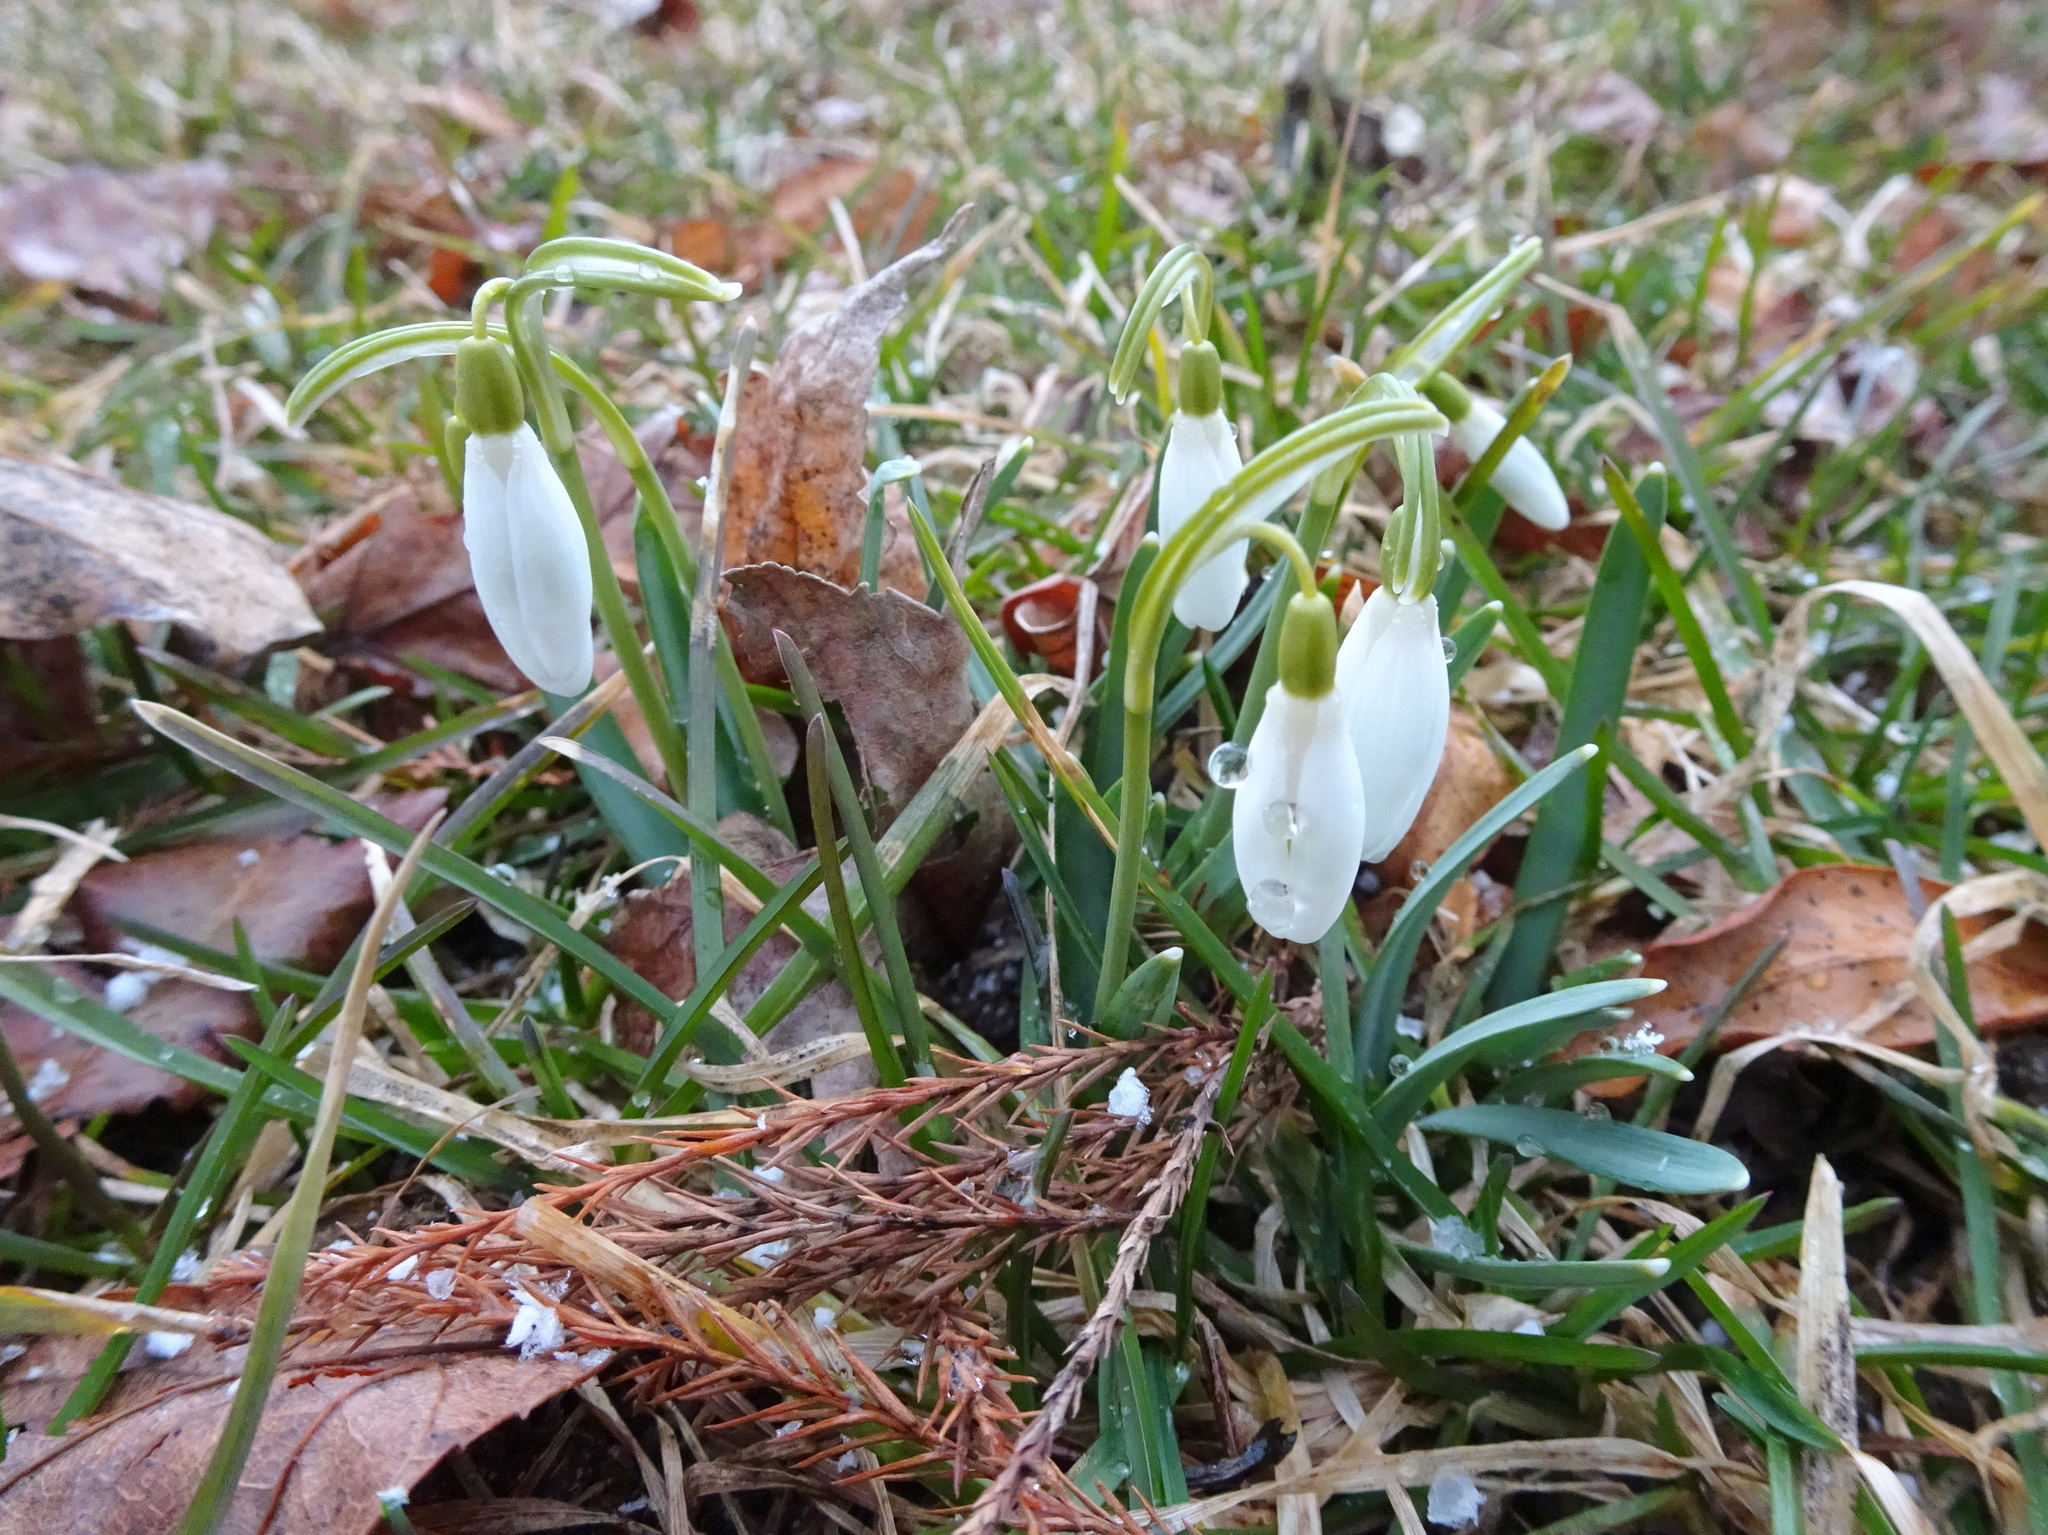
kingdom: Plantae
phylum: Tracheophyta
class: Liliopsida
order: Asparagales
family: Amaryllidaceae
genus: Galanthus
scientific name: Galanthus nivalis
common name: Snowdrop
